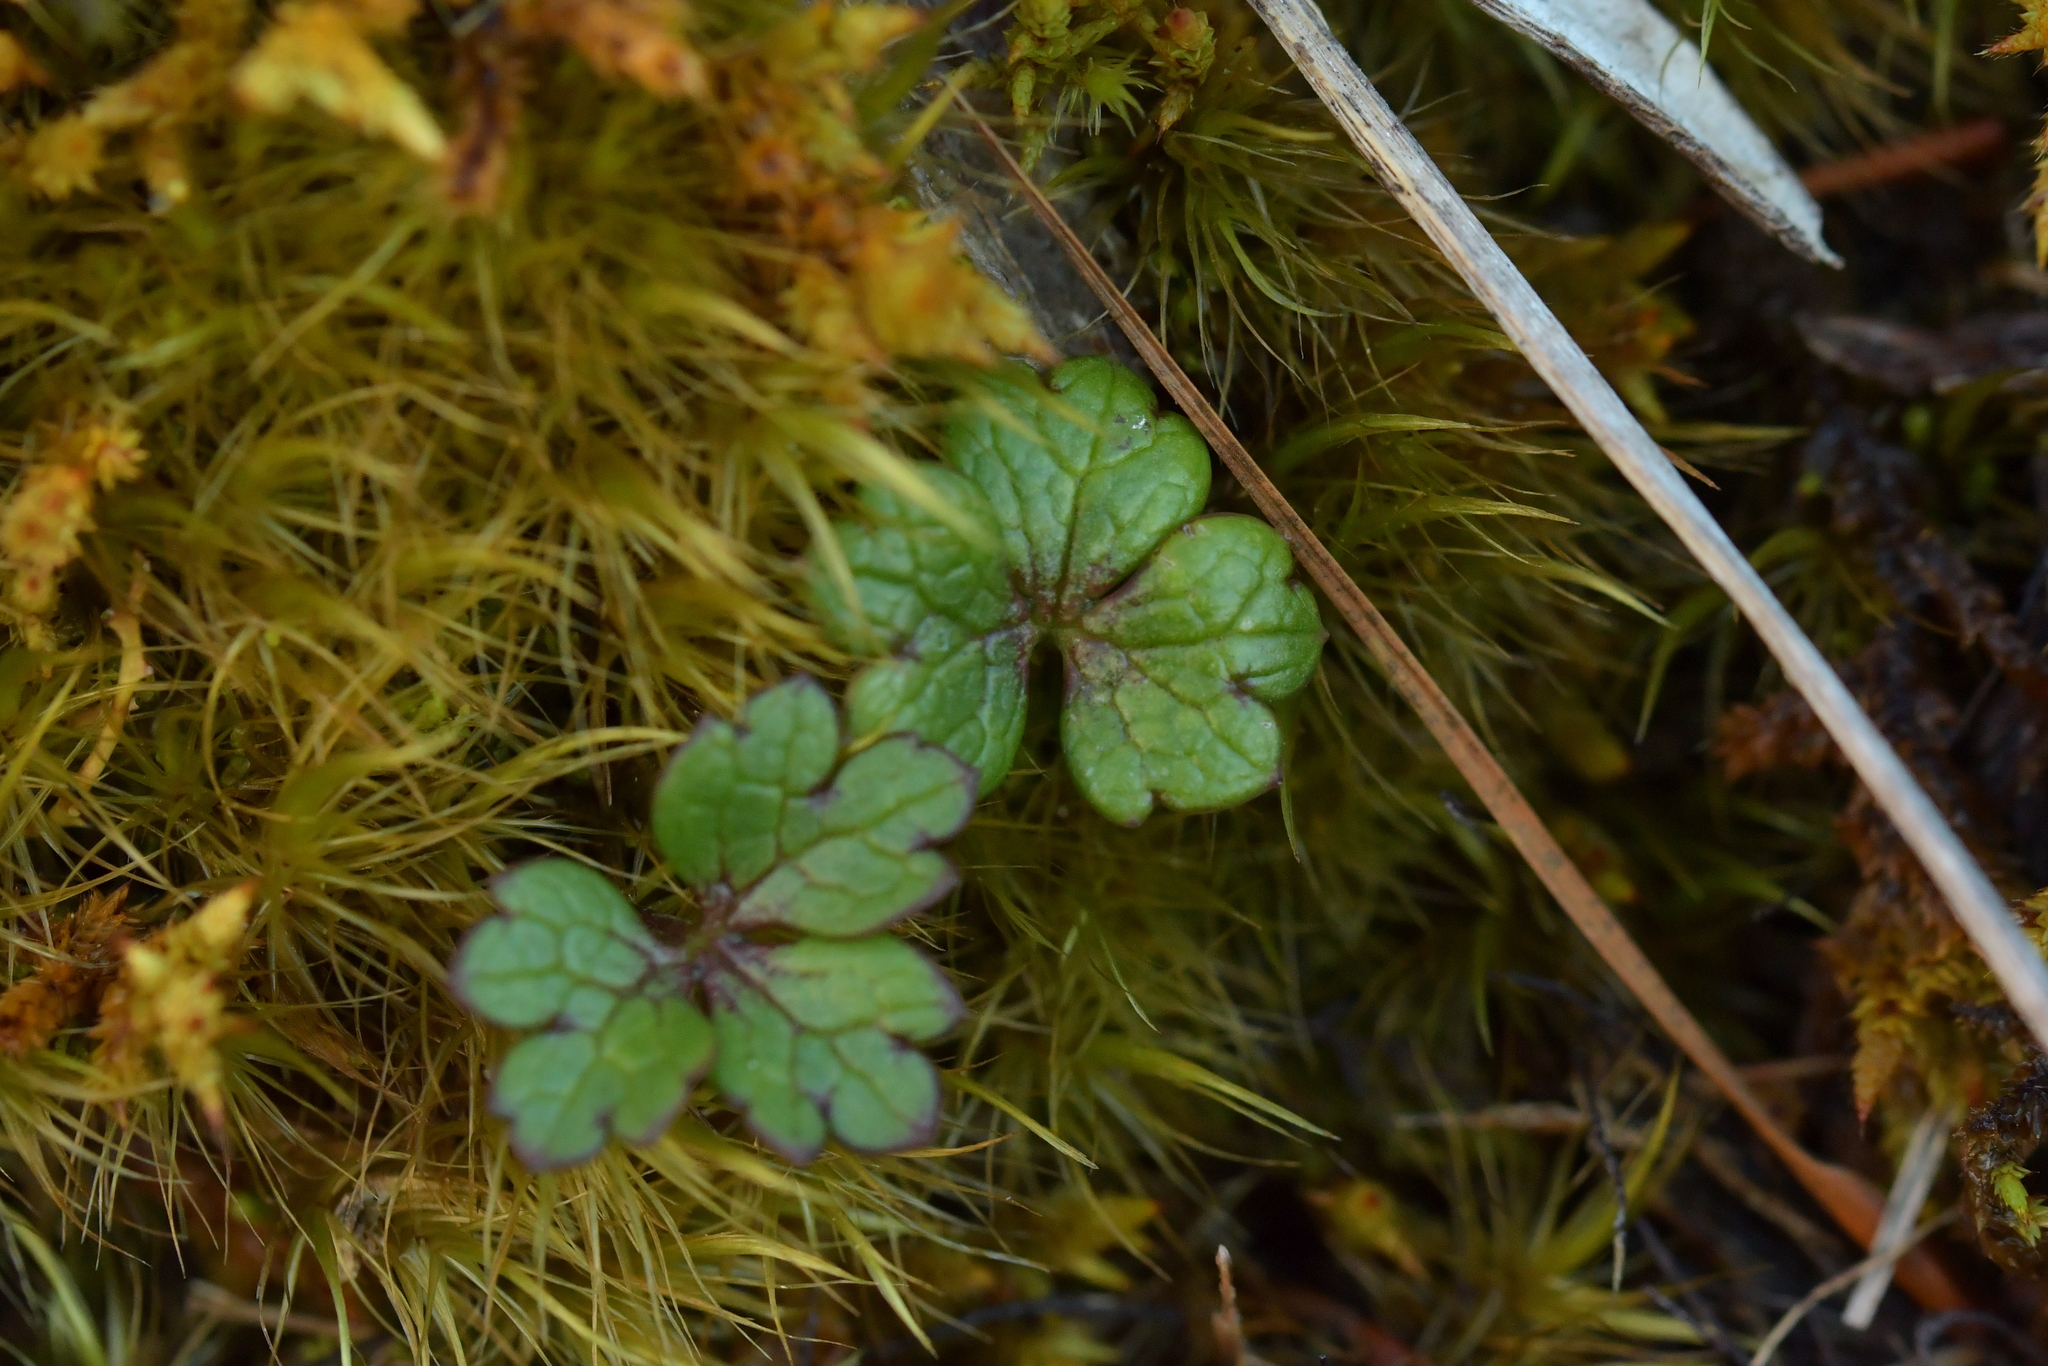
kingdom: Plantae
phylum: Tracheophyta
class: Magnoliopsida
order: Ranunculales
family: Ranunculaceae
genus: Ranunculus
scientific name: Ranunculus verticillatus
